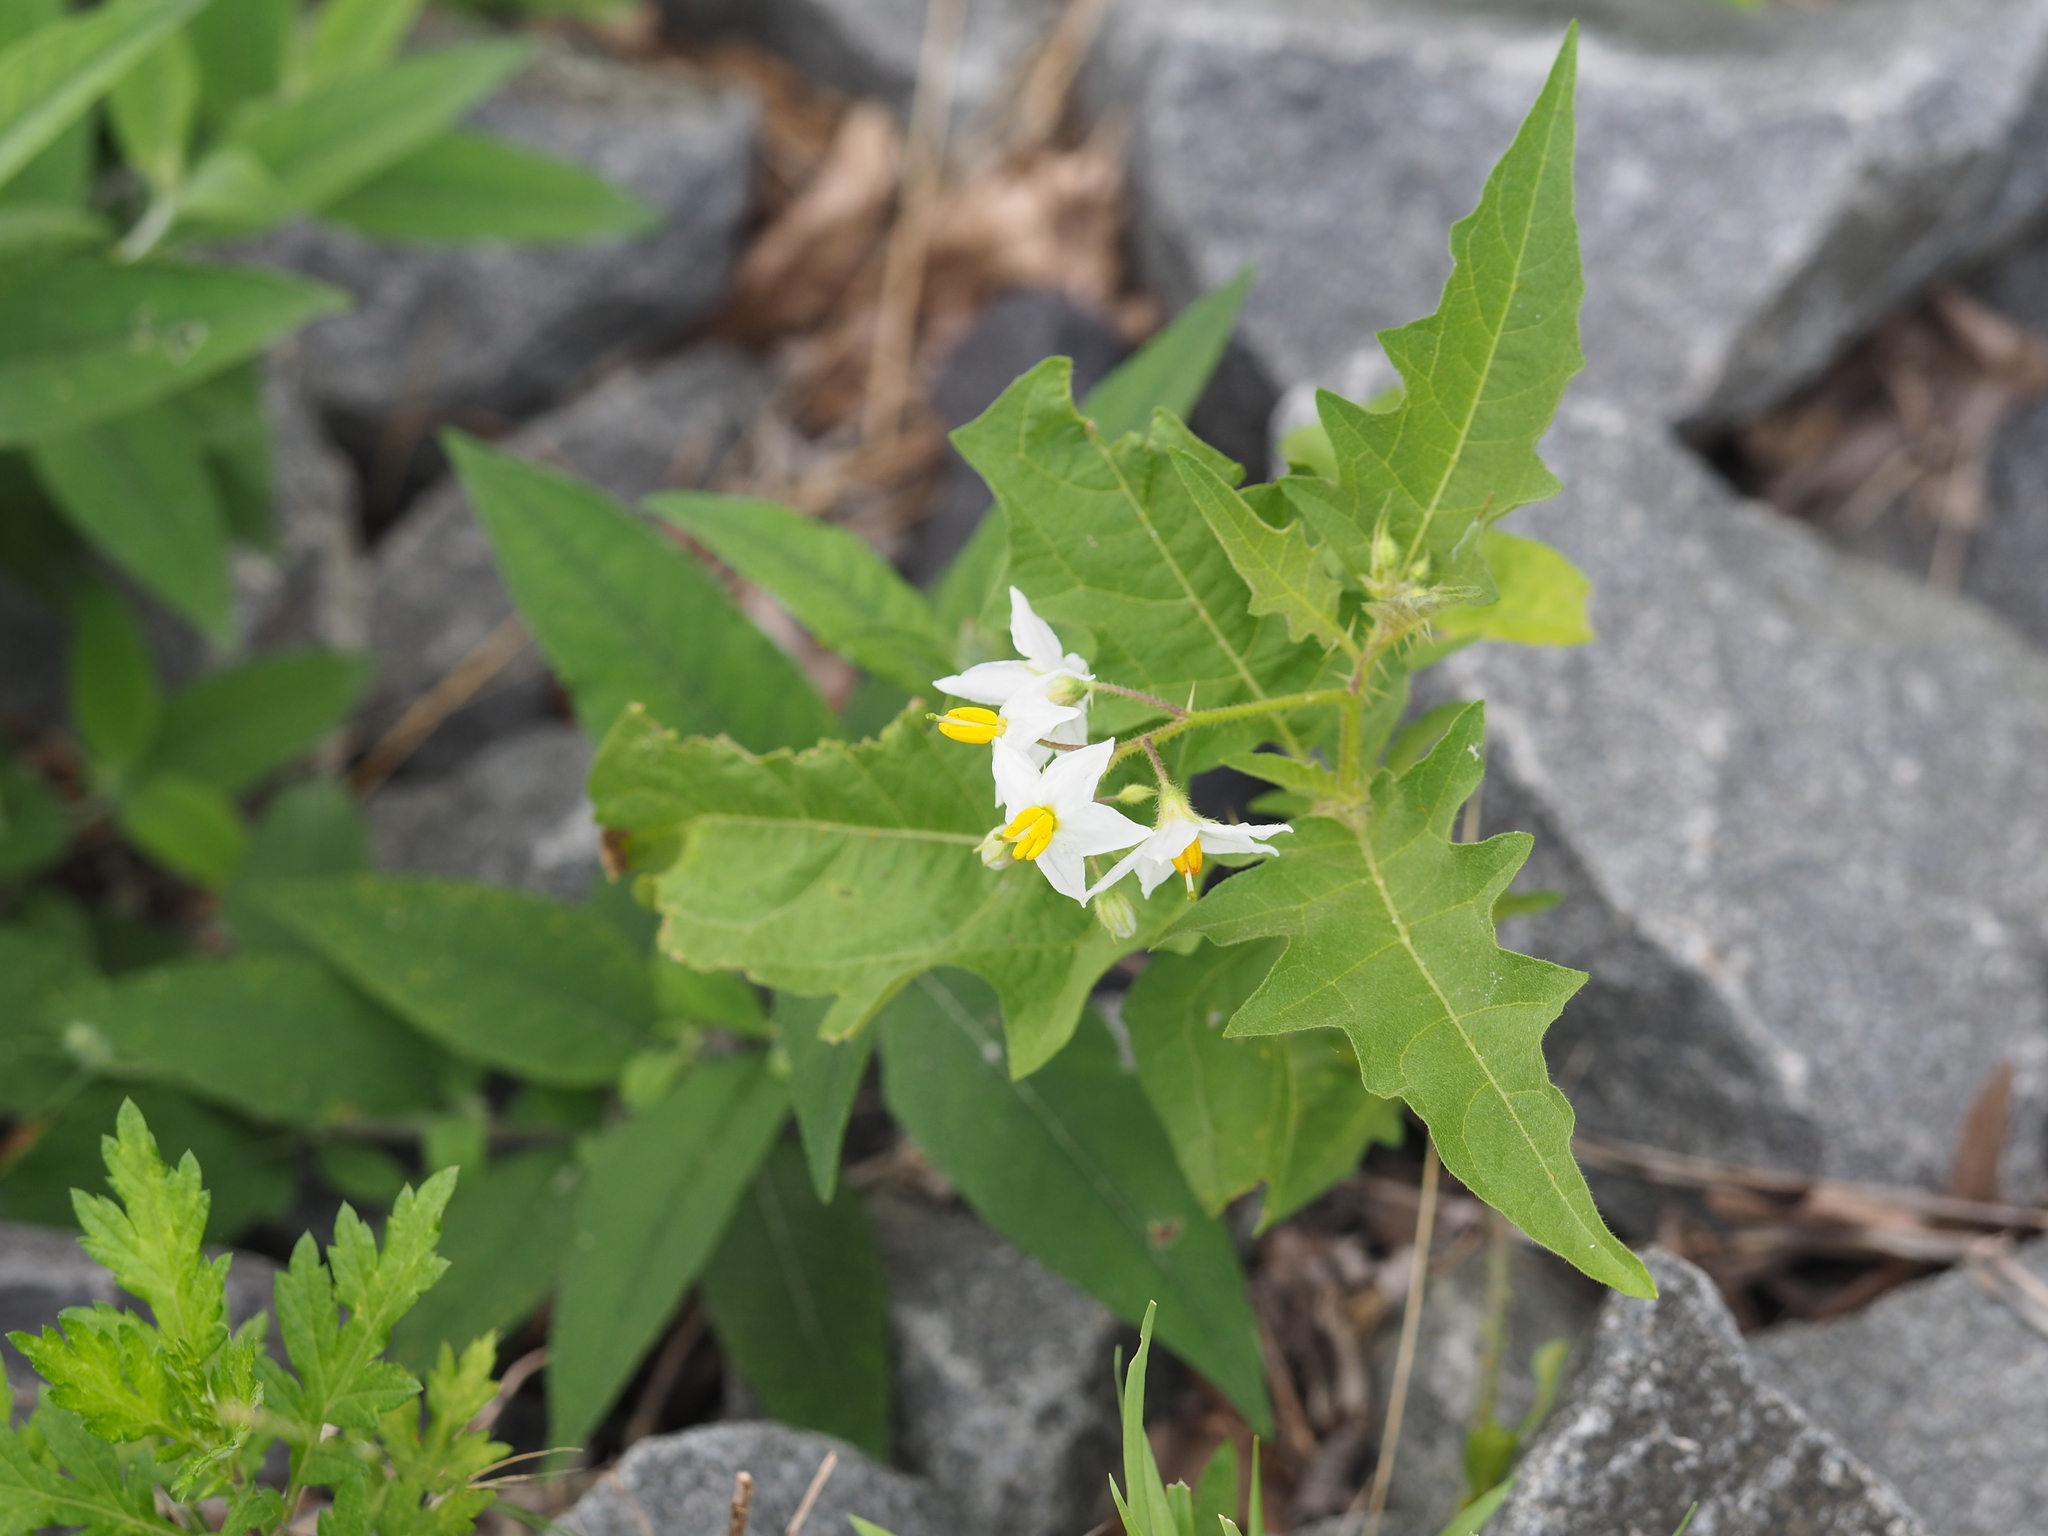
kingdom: Plantae
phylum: Tracheophyta
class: Magnoliopsida
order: Solanales
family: Solanaceae
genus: Solanum
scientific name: Solanum carolinense
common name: Horse-nettle
